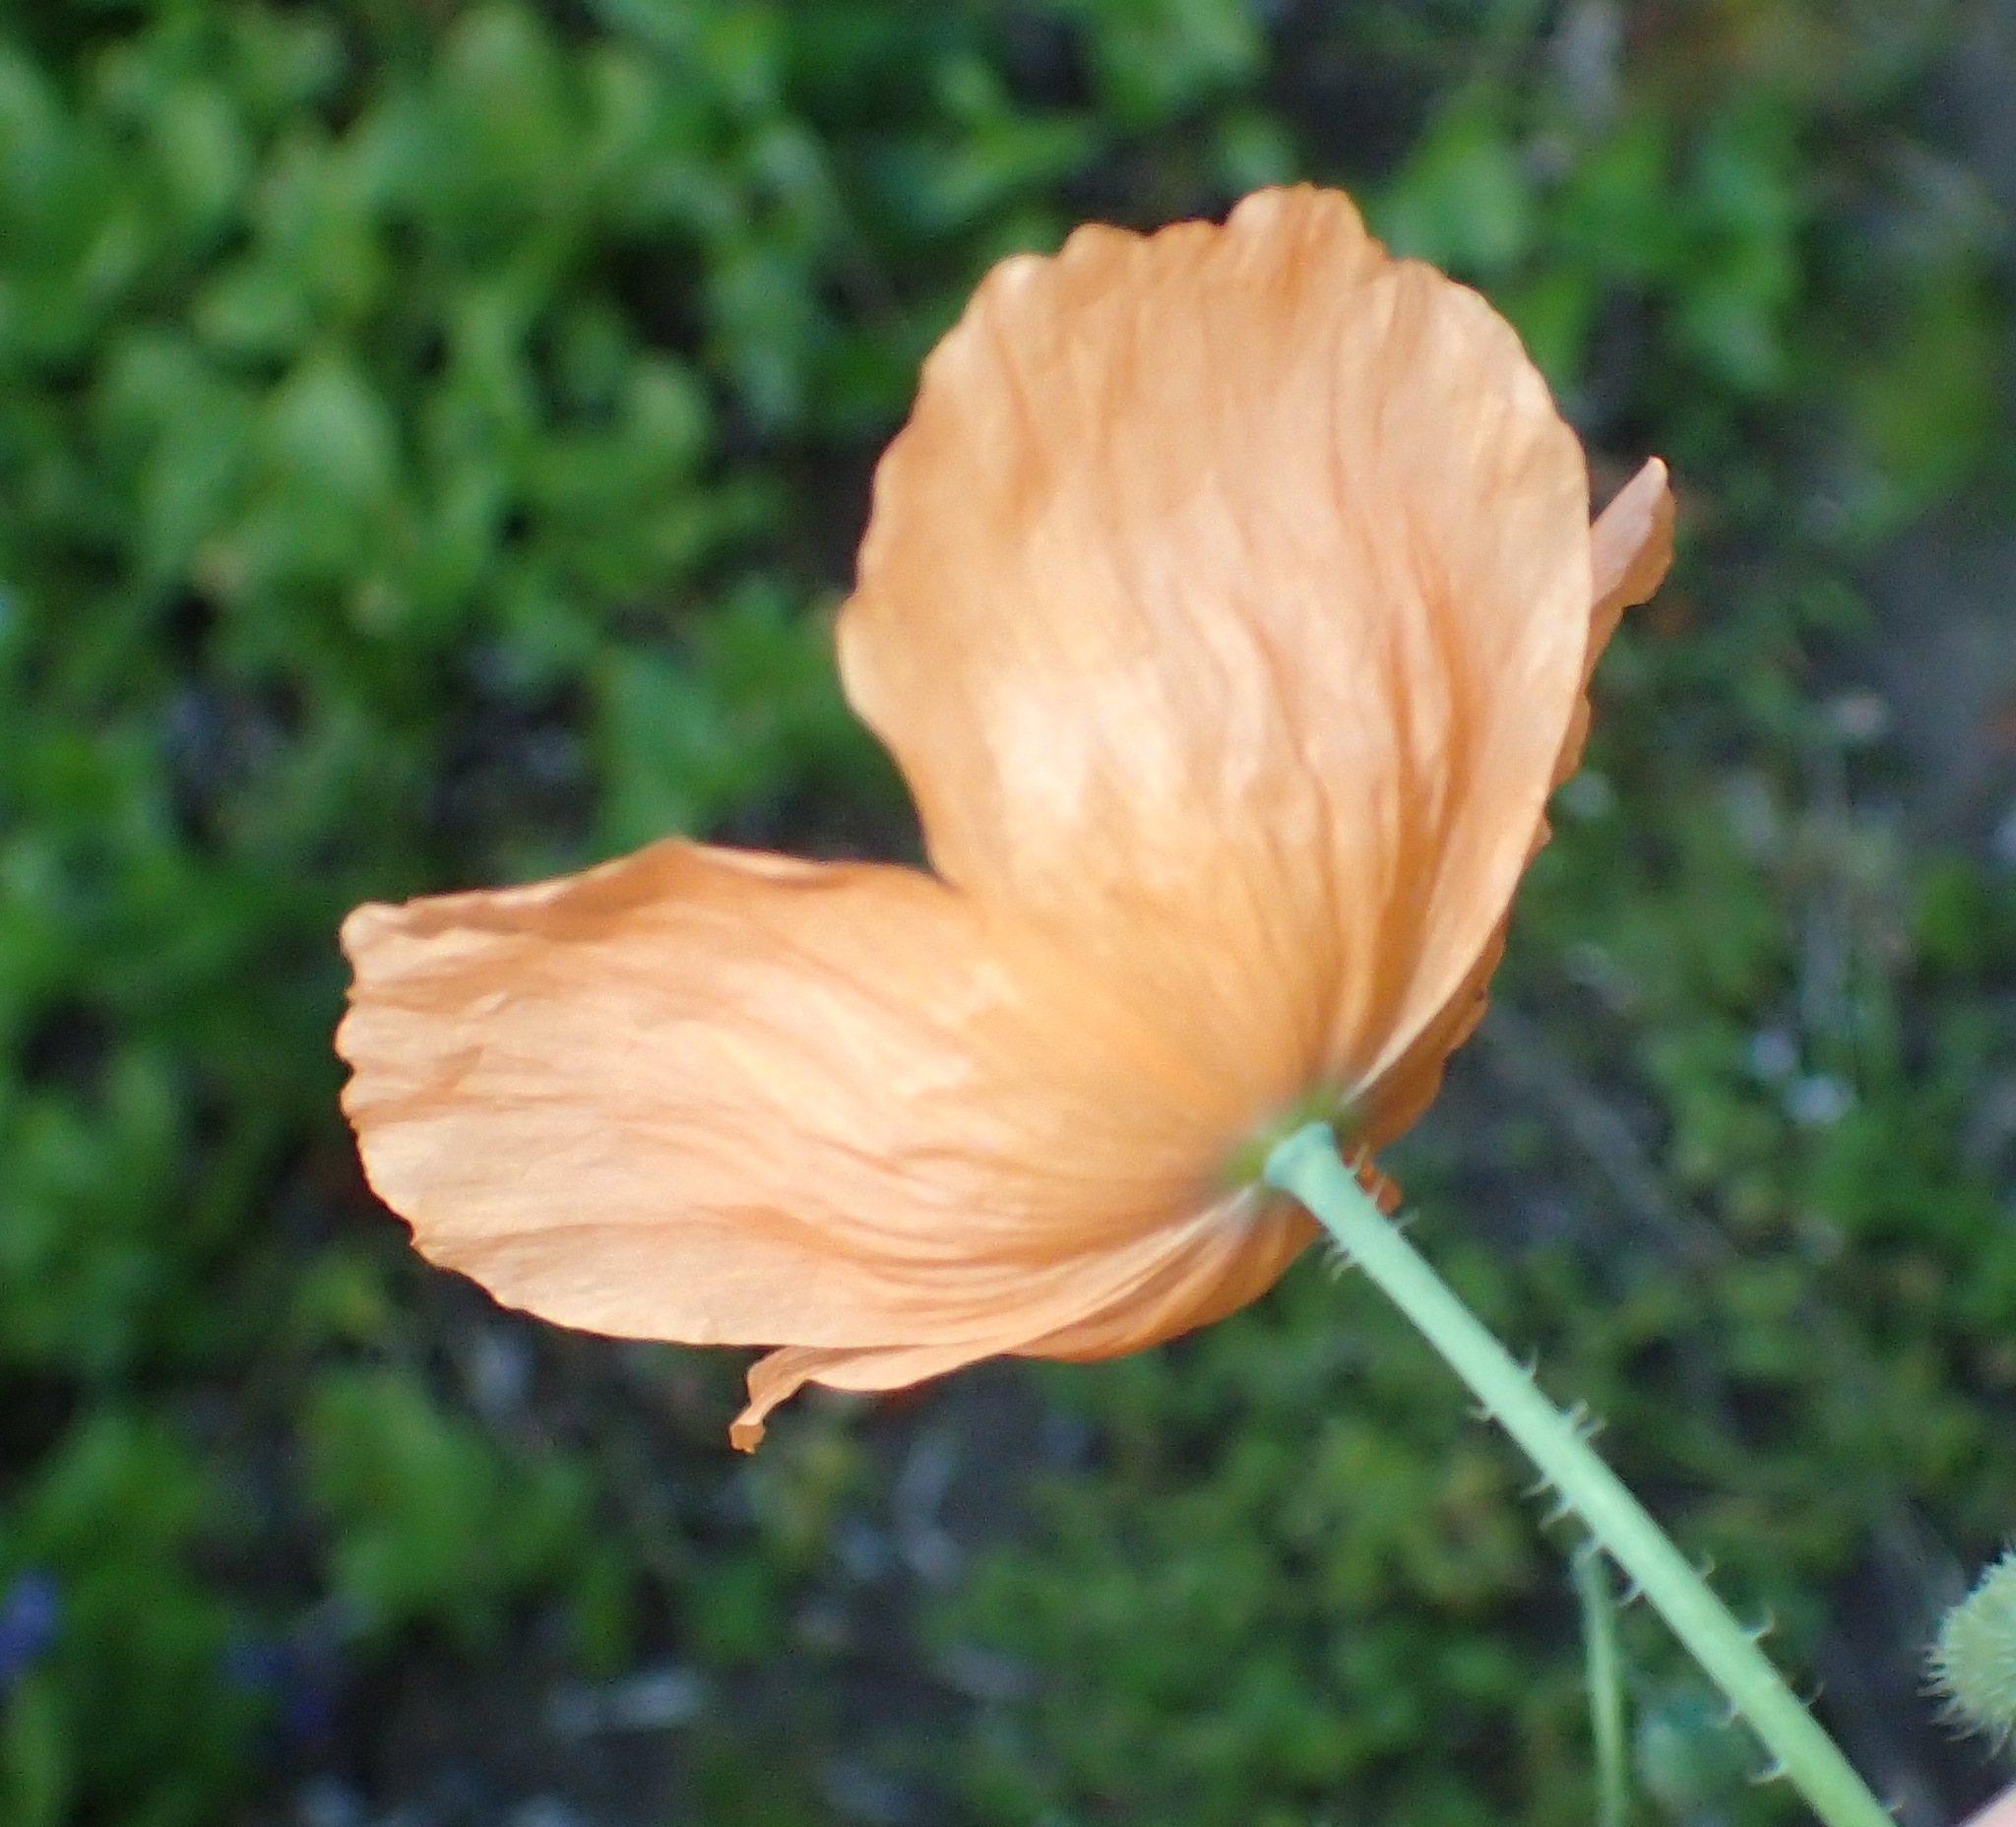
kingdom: Plantae
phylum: Tracheophyta
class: Magnoliopsida
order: Ranunculales
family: Papaveraceae
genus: Papaver
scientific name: Papaver aculeatum
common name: Bristle poppy
